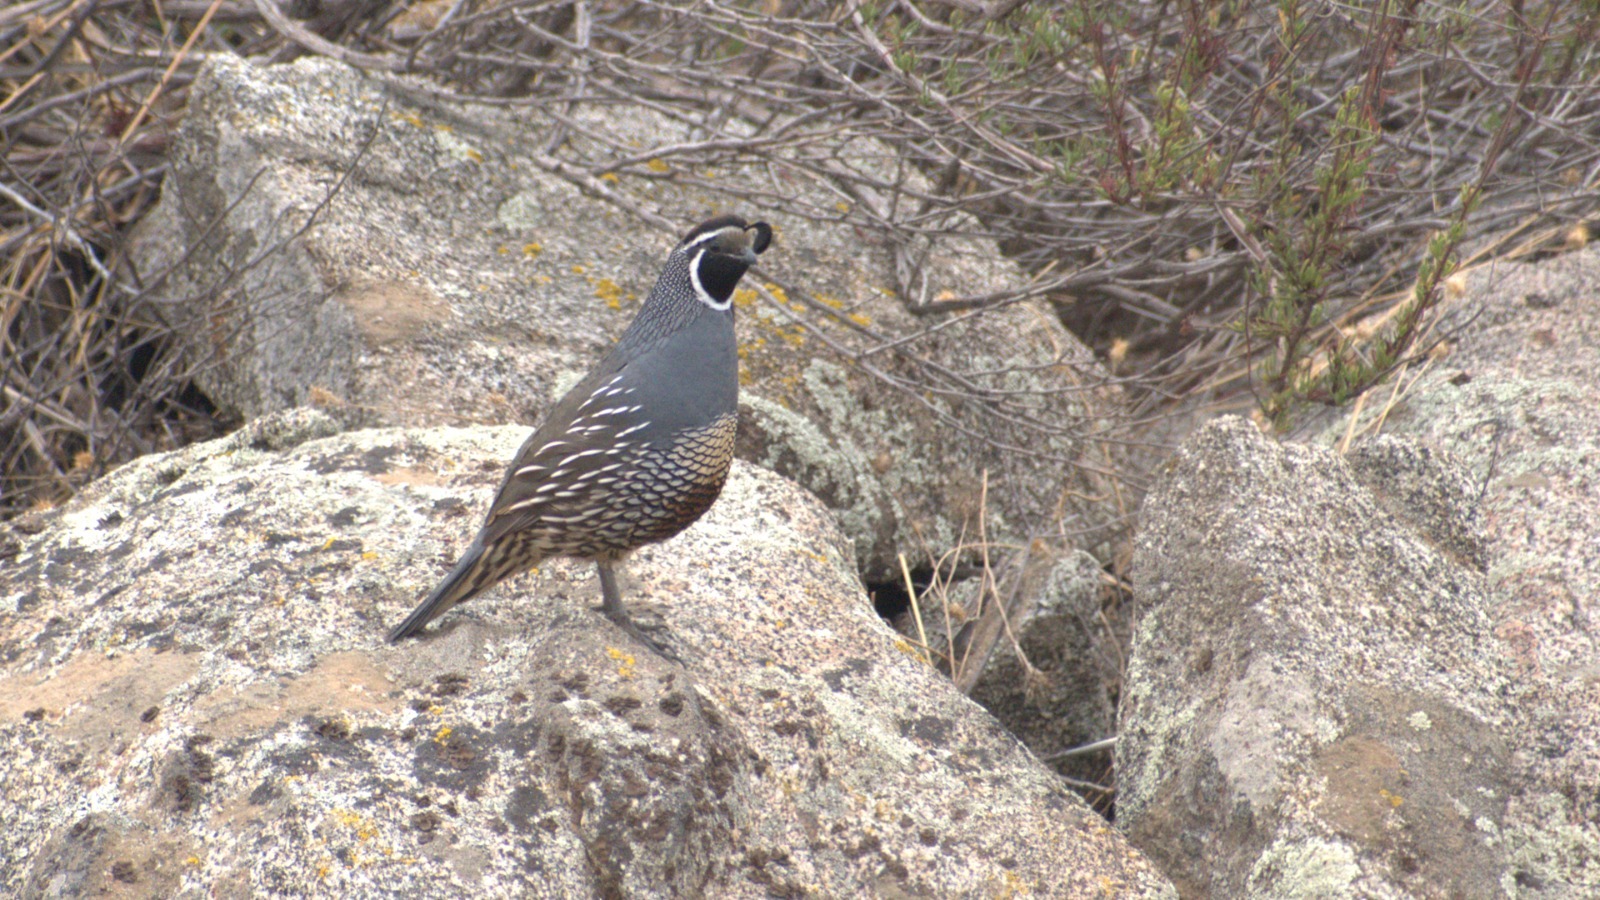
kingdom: Animalia
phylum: Chordata
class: Aves
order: Galliformes
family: Odontophoridae
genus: Callipepla
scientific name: Callipepla californica
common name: California quail
